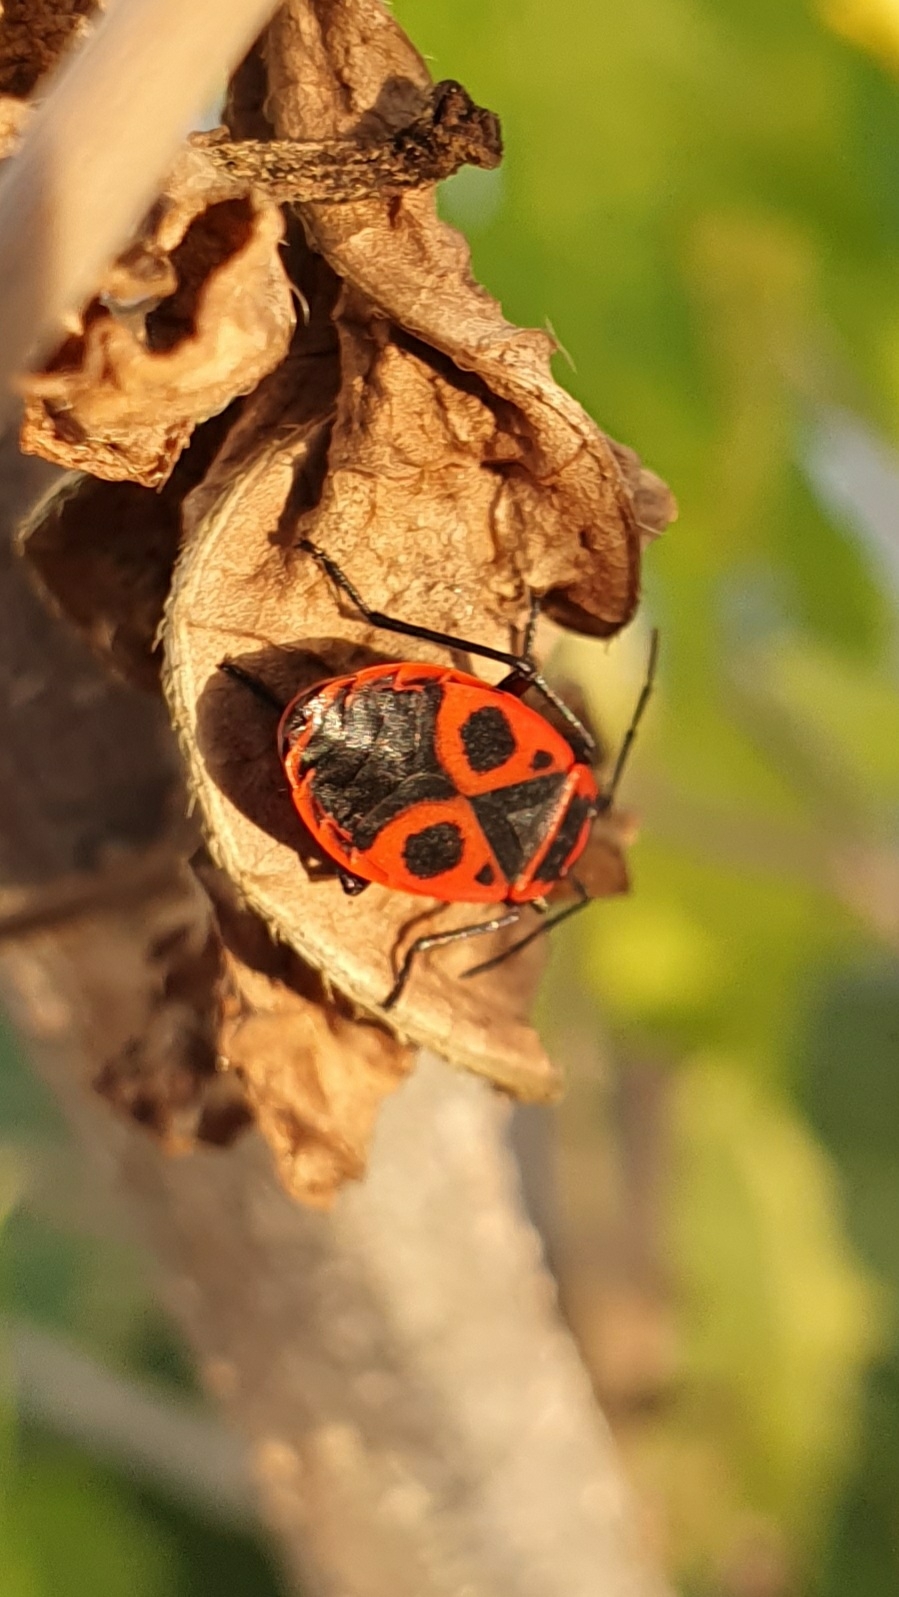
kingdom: Animalia
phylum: Arthropoda
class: Insecta
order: Hemiptera
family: Pyrrhocoridae
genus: Pyrrhocoris
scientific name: Pyrrhocoris apterus
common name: Firebug
